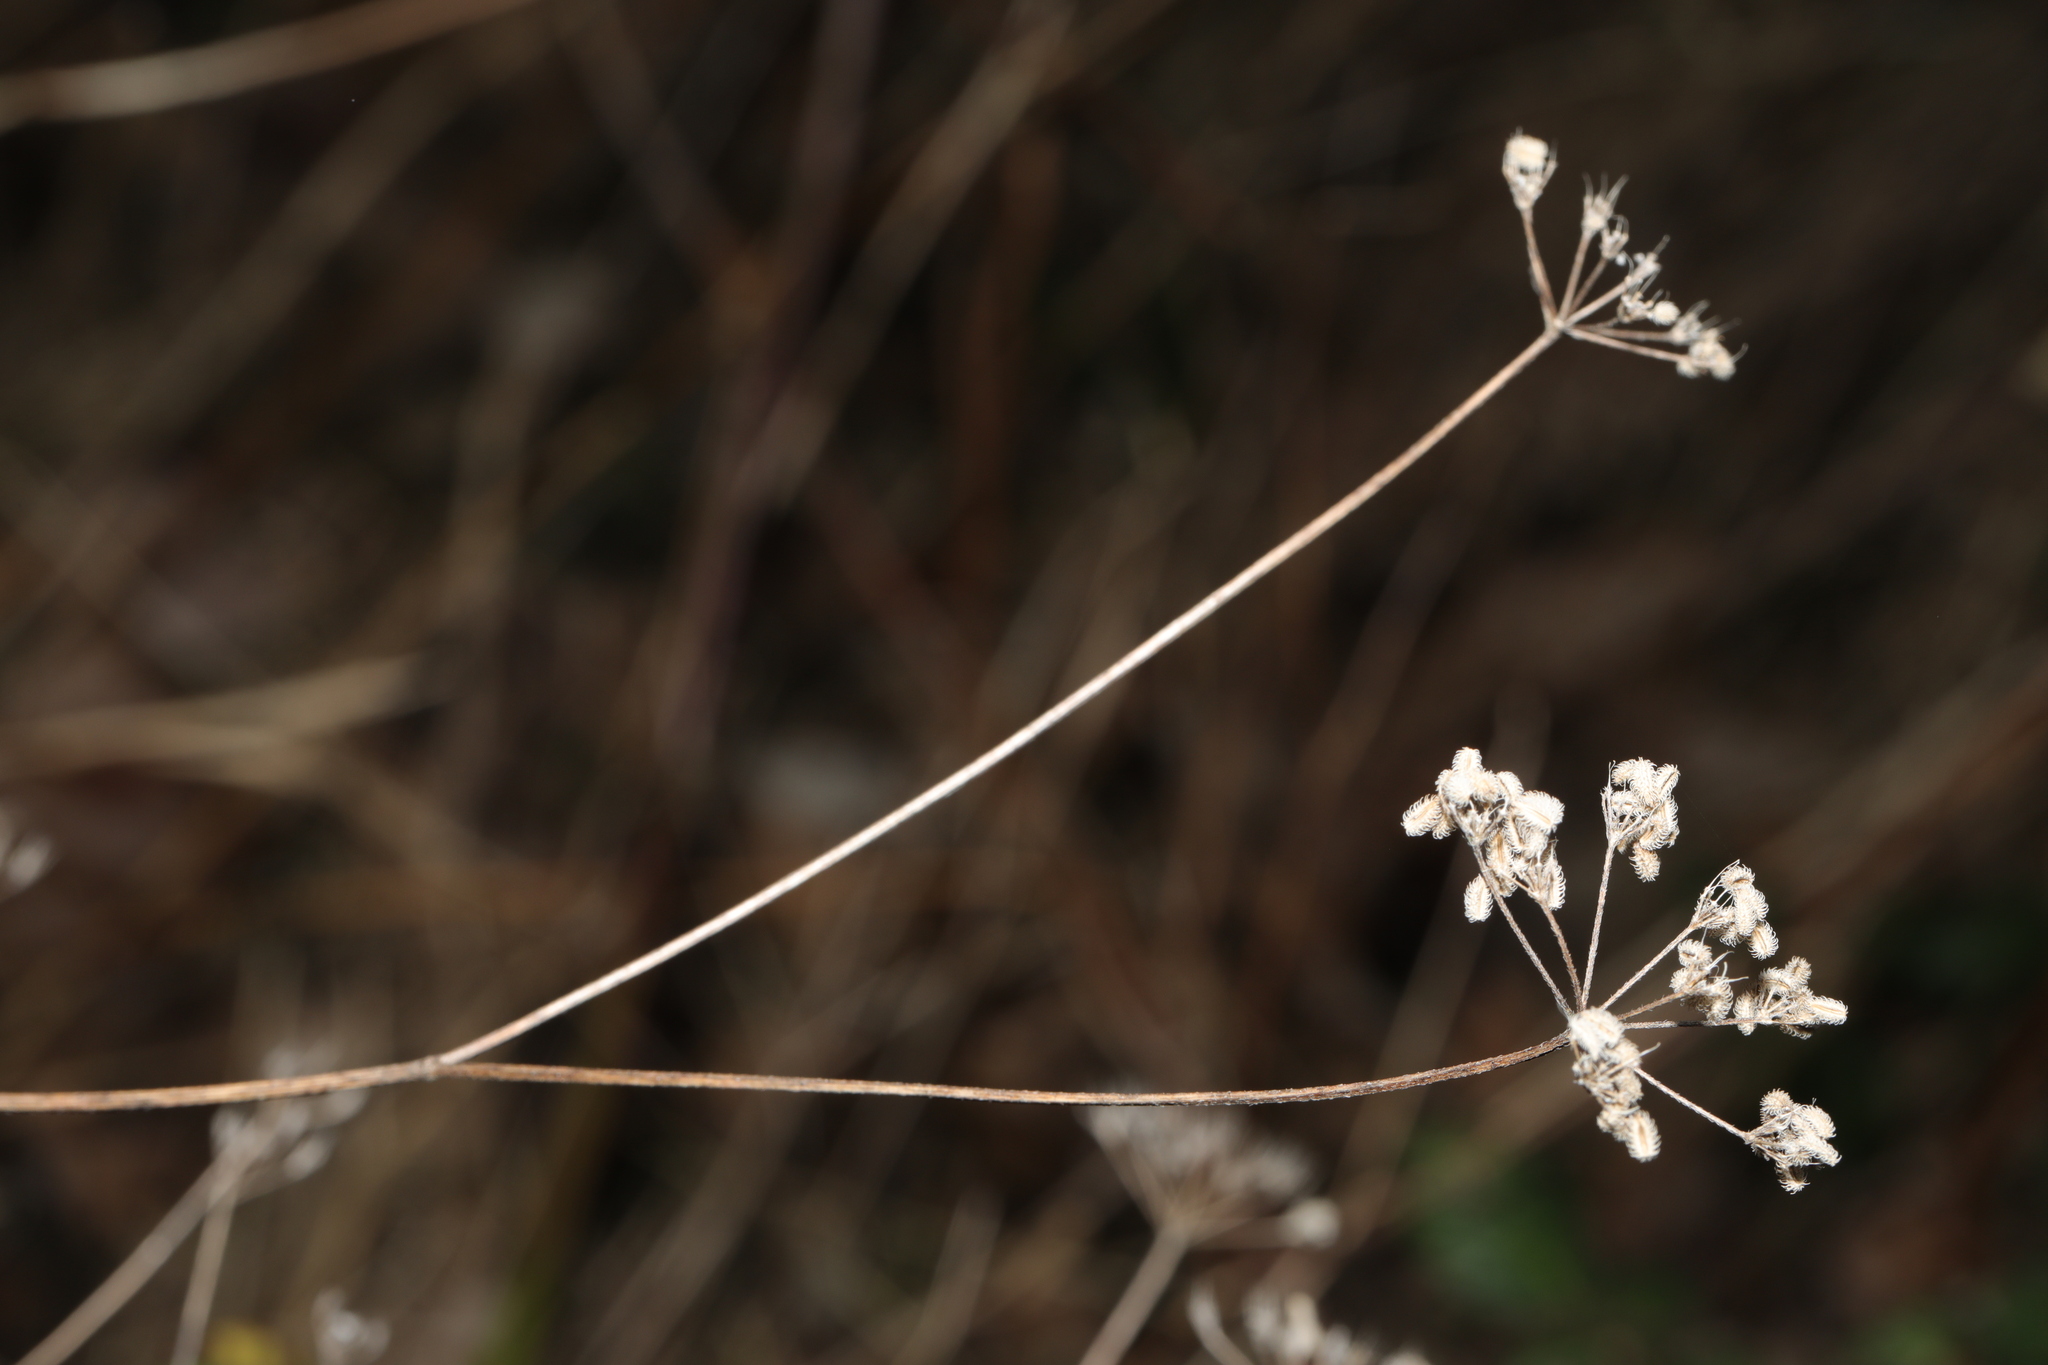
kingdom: Plantae
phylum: Tracheophyta
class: Magnoliopsida
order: Apiales
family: Apiaceae
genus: Torilis
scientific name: Torilis japonica
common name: Upright hedge-parsley
